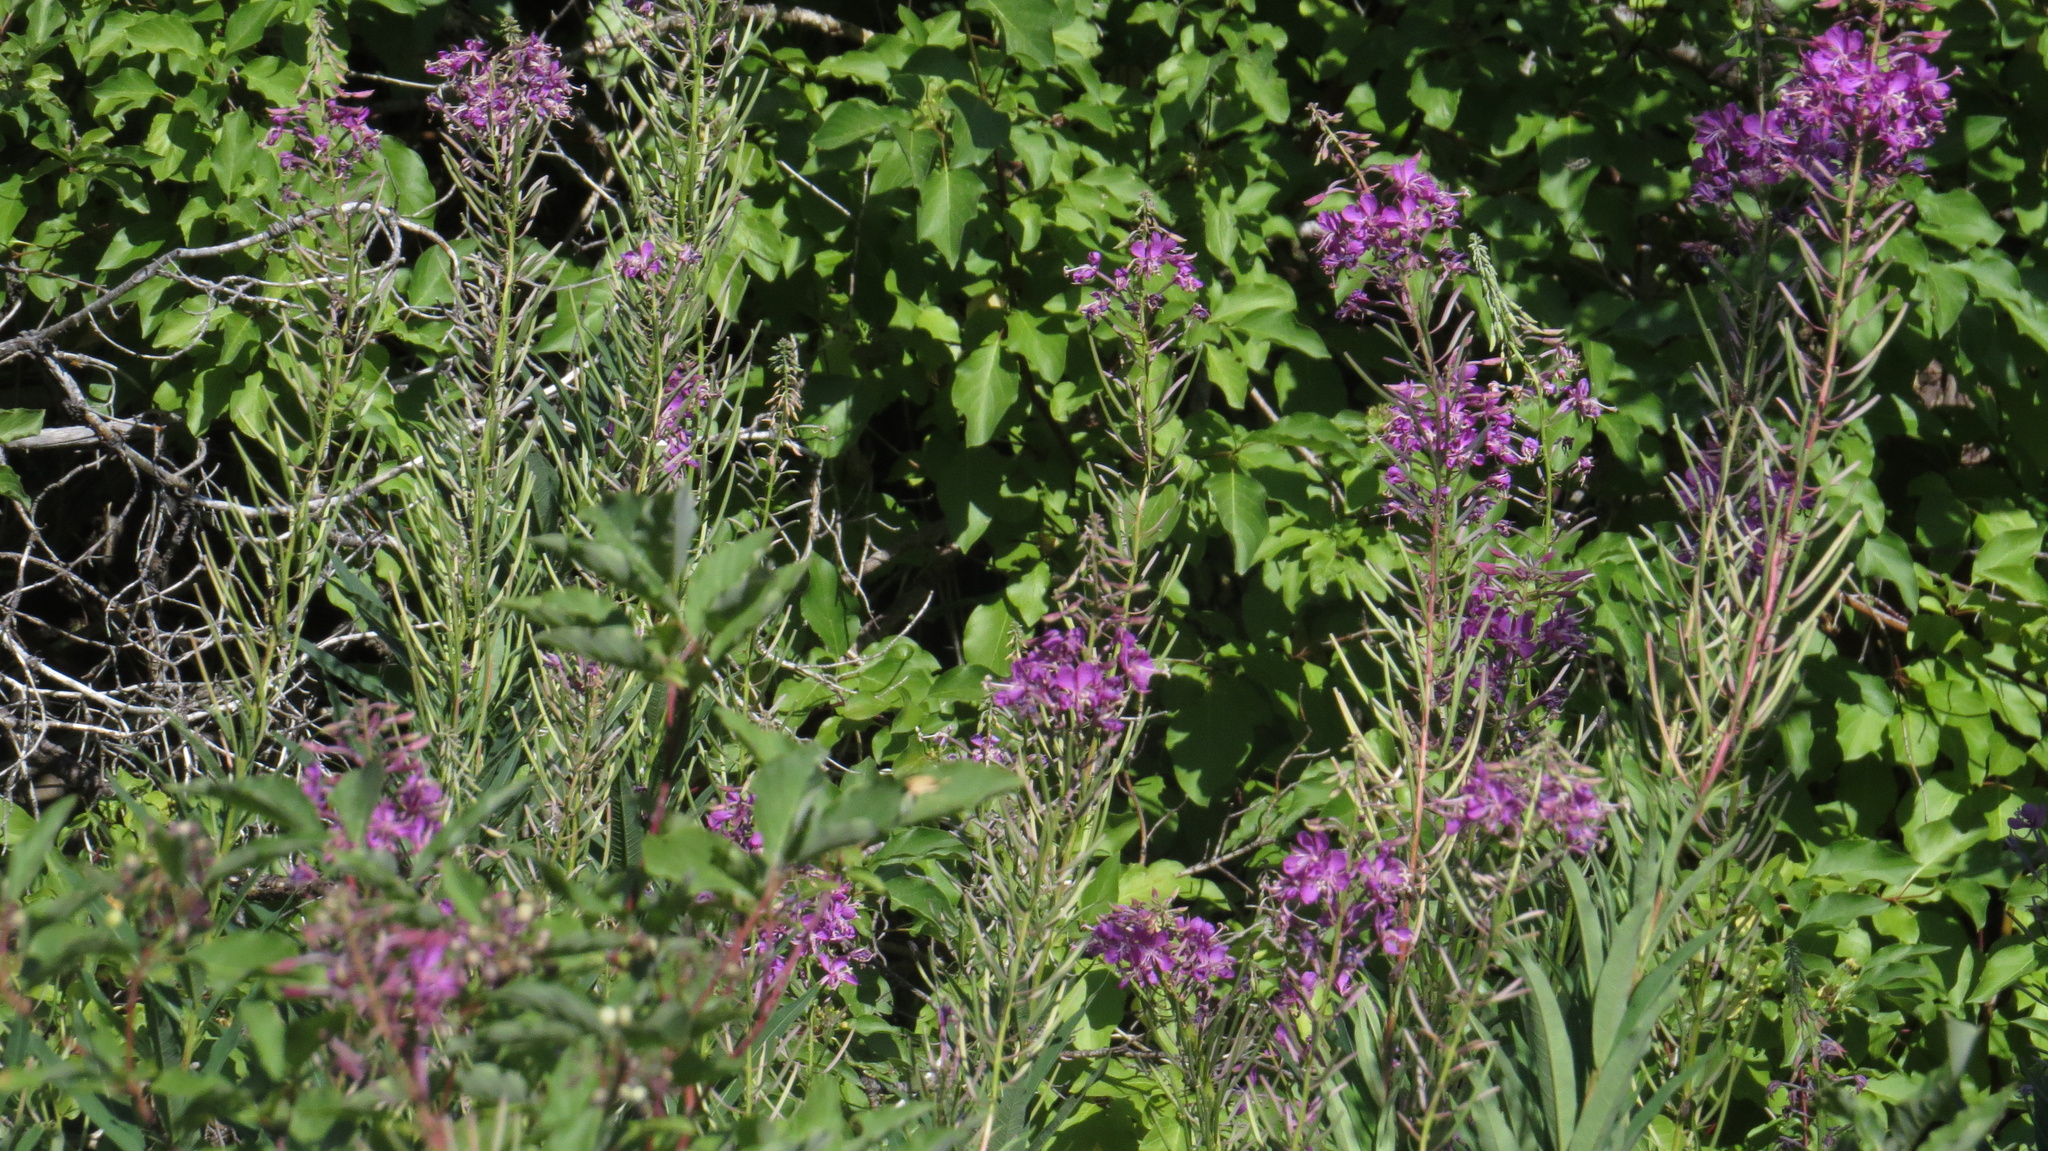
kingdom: Plantae
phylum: Tracheophyta
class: Magnoliopsida
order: Myrtales
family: Onagraceae
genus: Chamaenerion
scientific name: Chamaenerion angustifolium
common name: Fireweed
